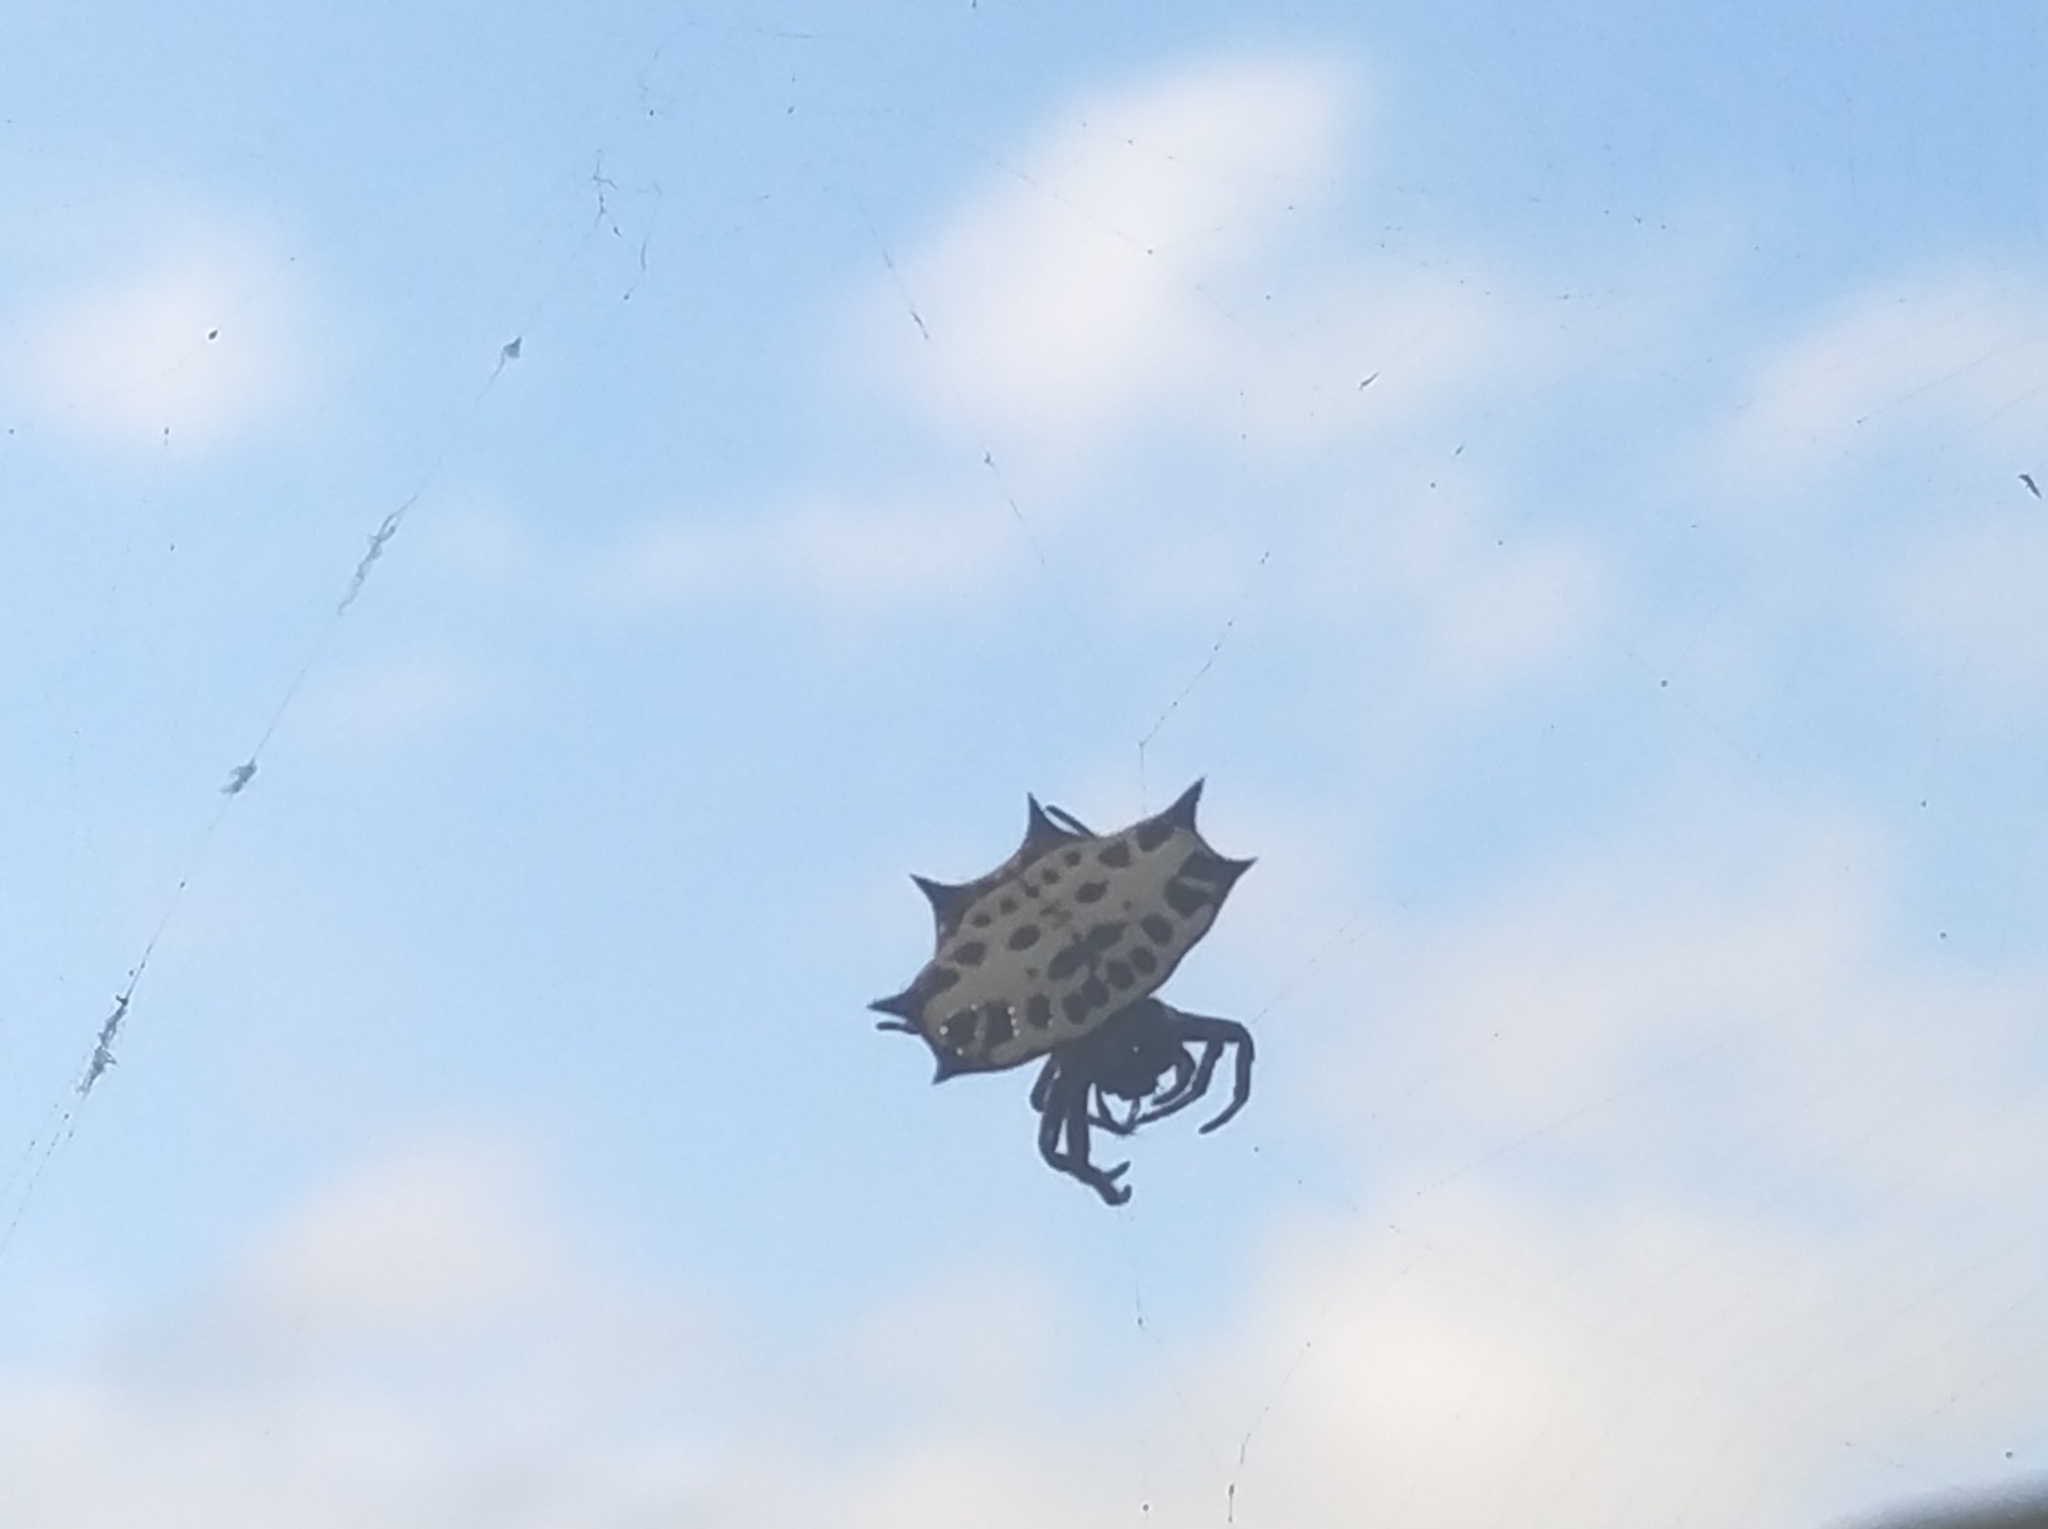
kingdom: Animalia
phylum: Arthropoda
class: Arachnida
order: Araneae
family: Araneidae
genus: Gasteracantha
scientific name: Gasteracantha cancriformis
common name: Orb weavers
